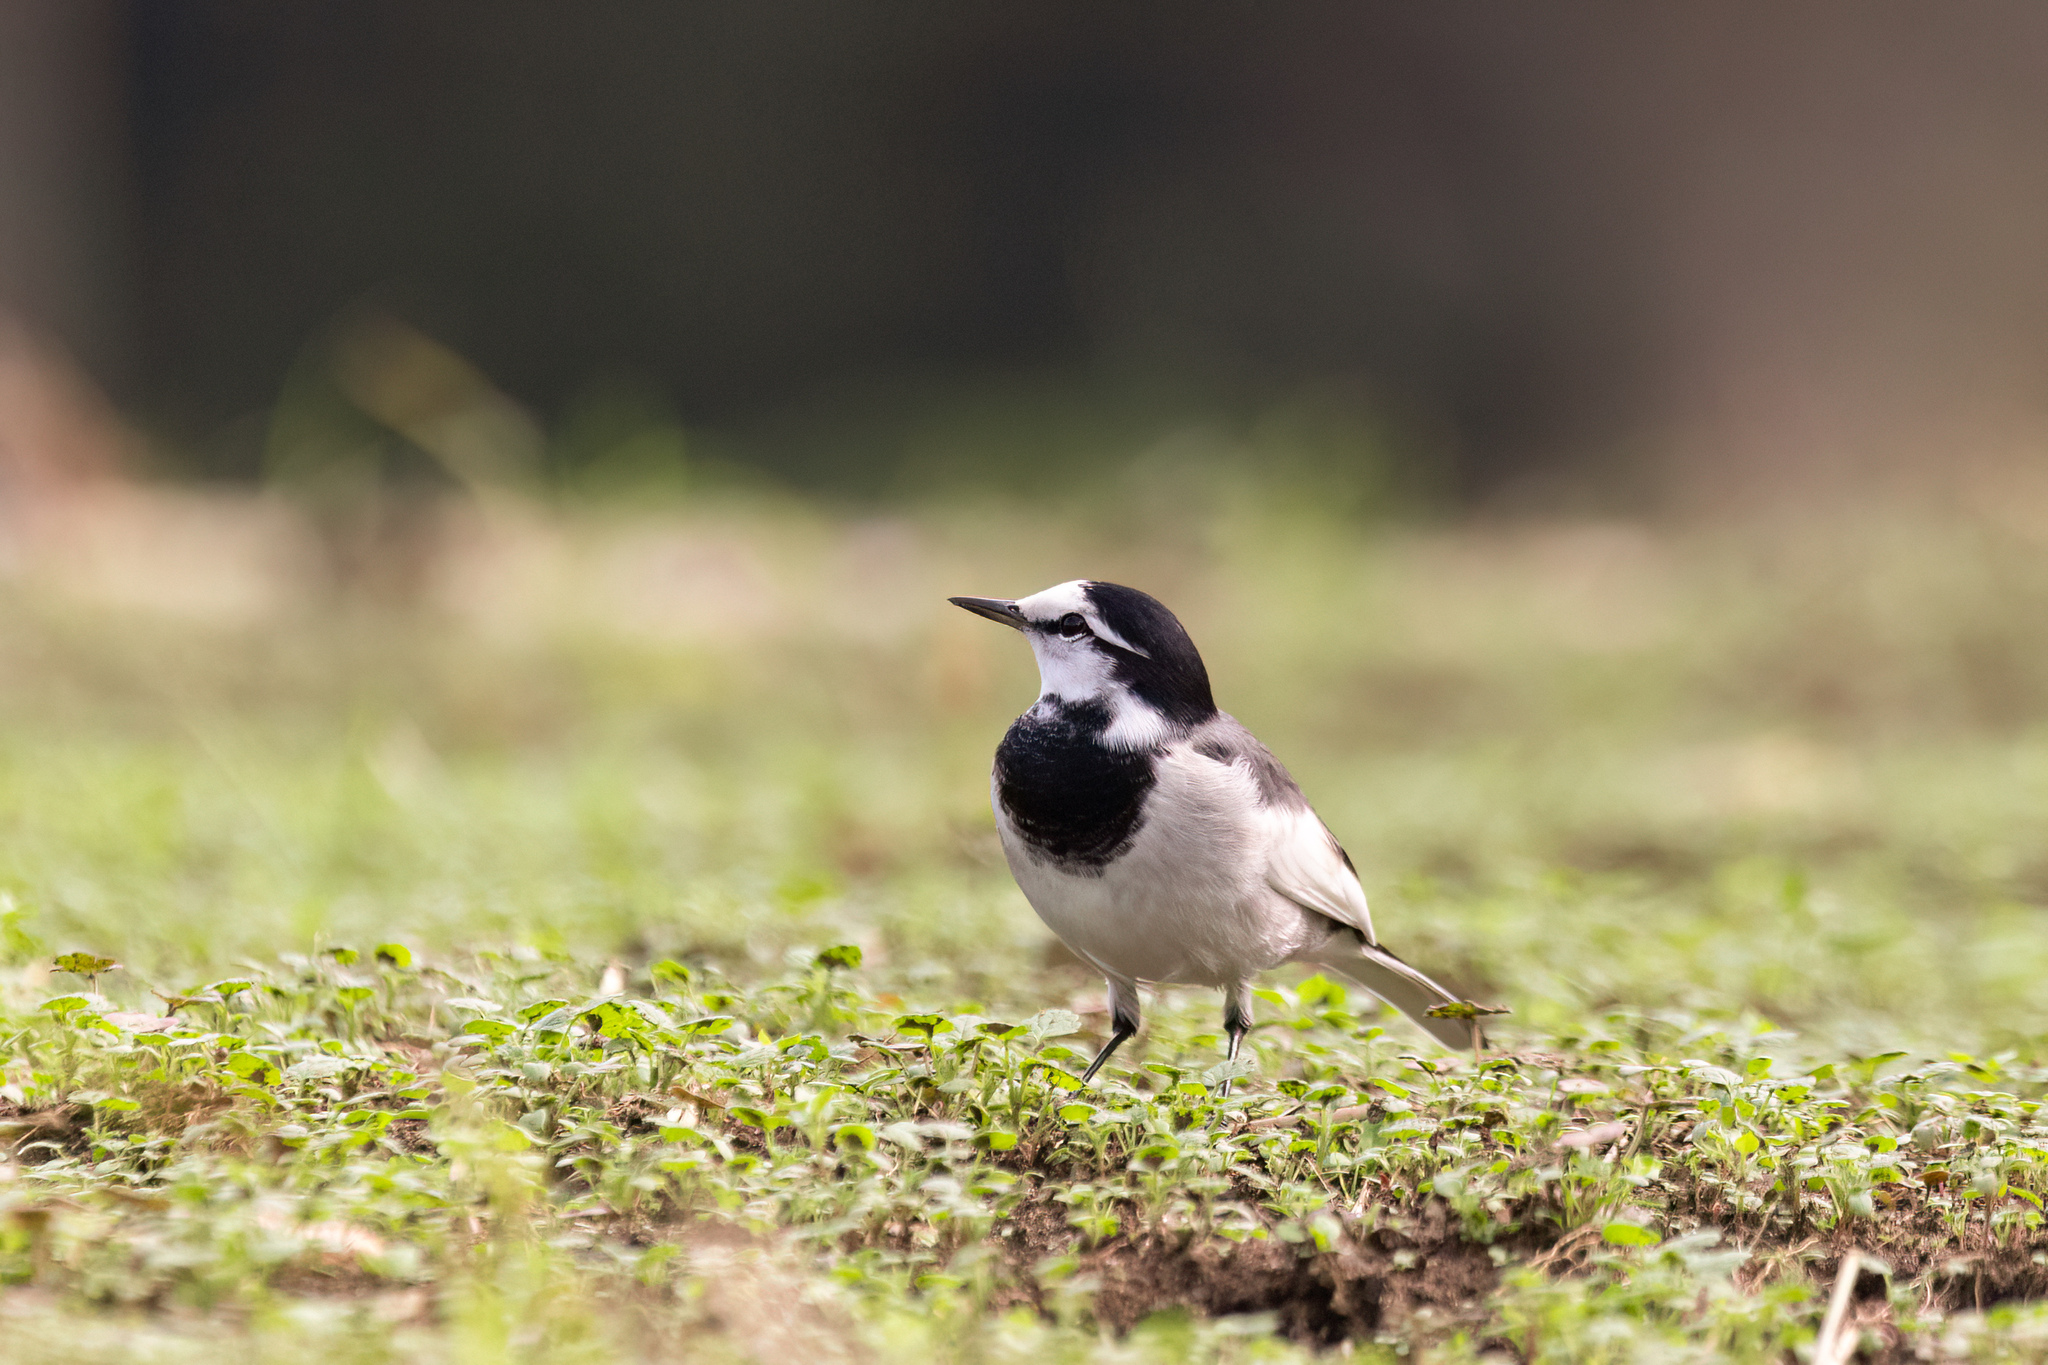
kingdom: Animalia
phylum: Chordata
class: Aves
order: Passeriformes
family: Motacillidae
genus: Motacilla
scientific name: Motacilla alba
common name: White wagtail
